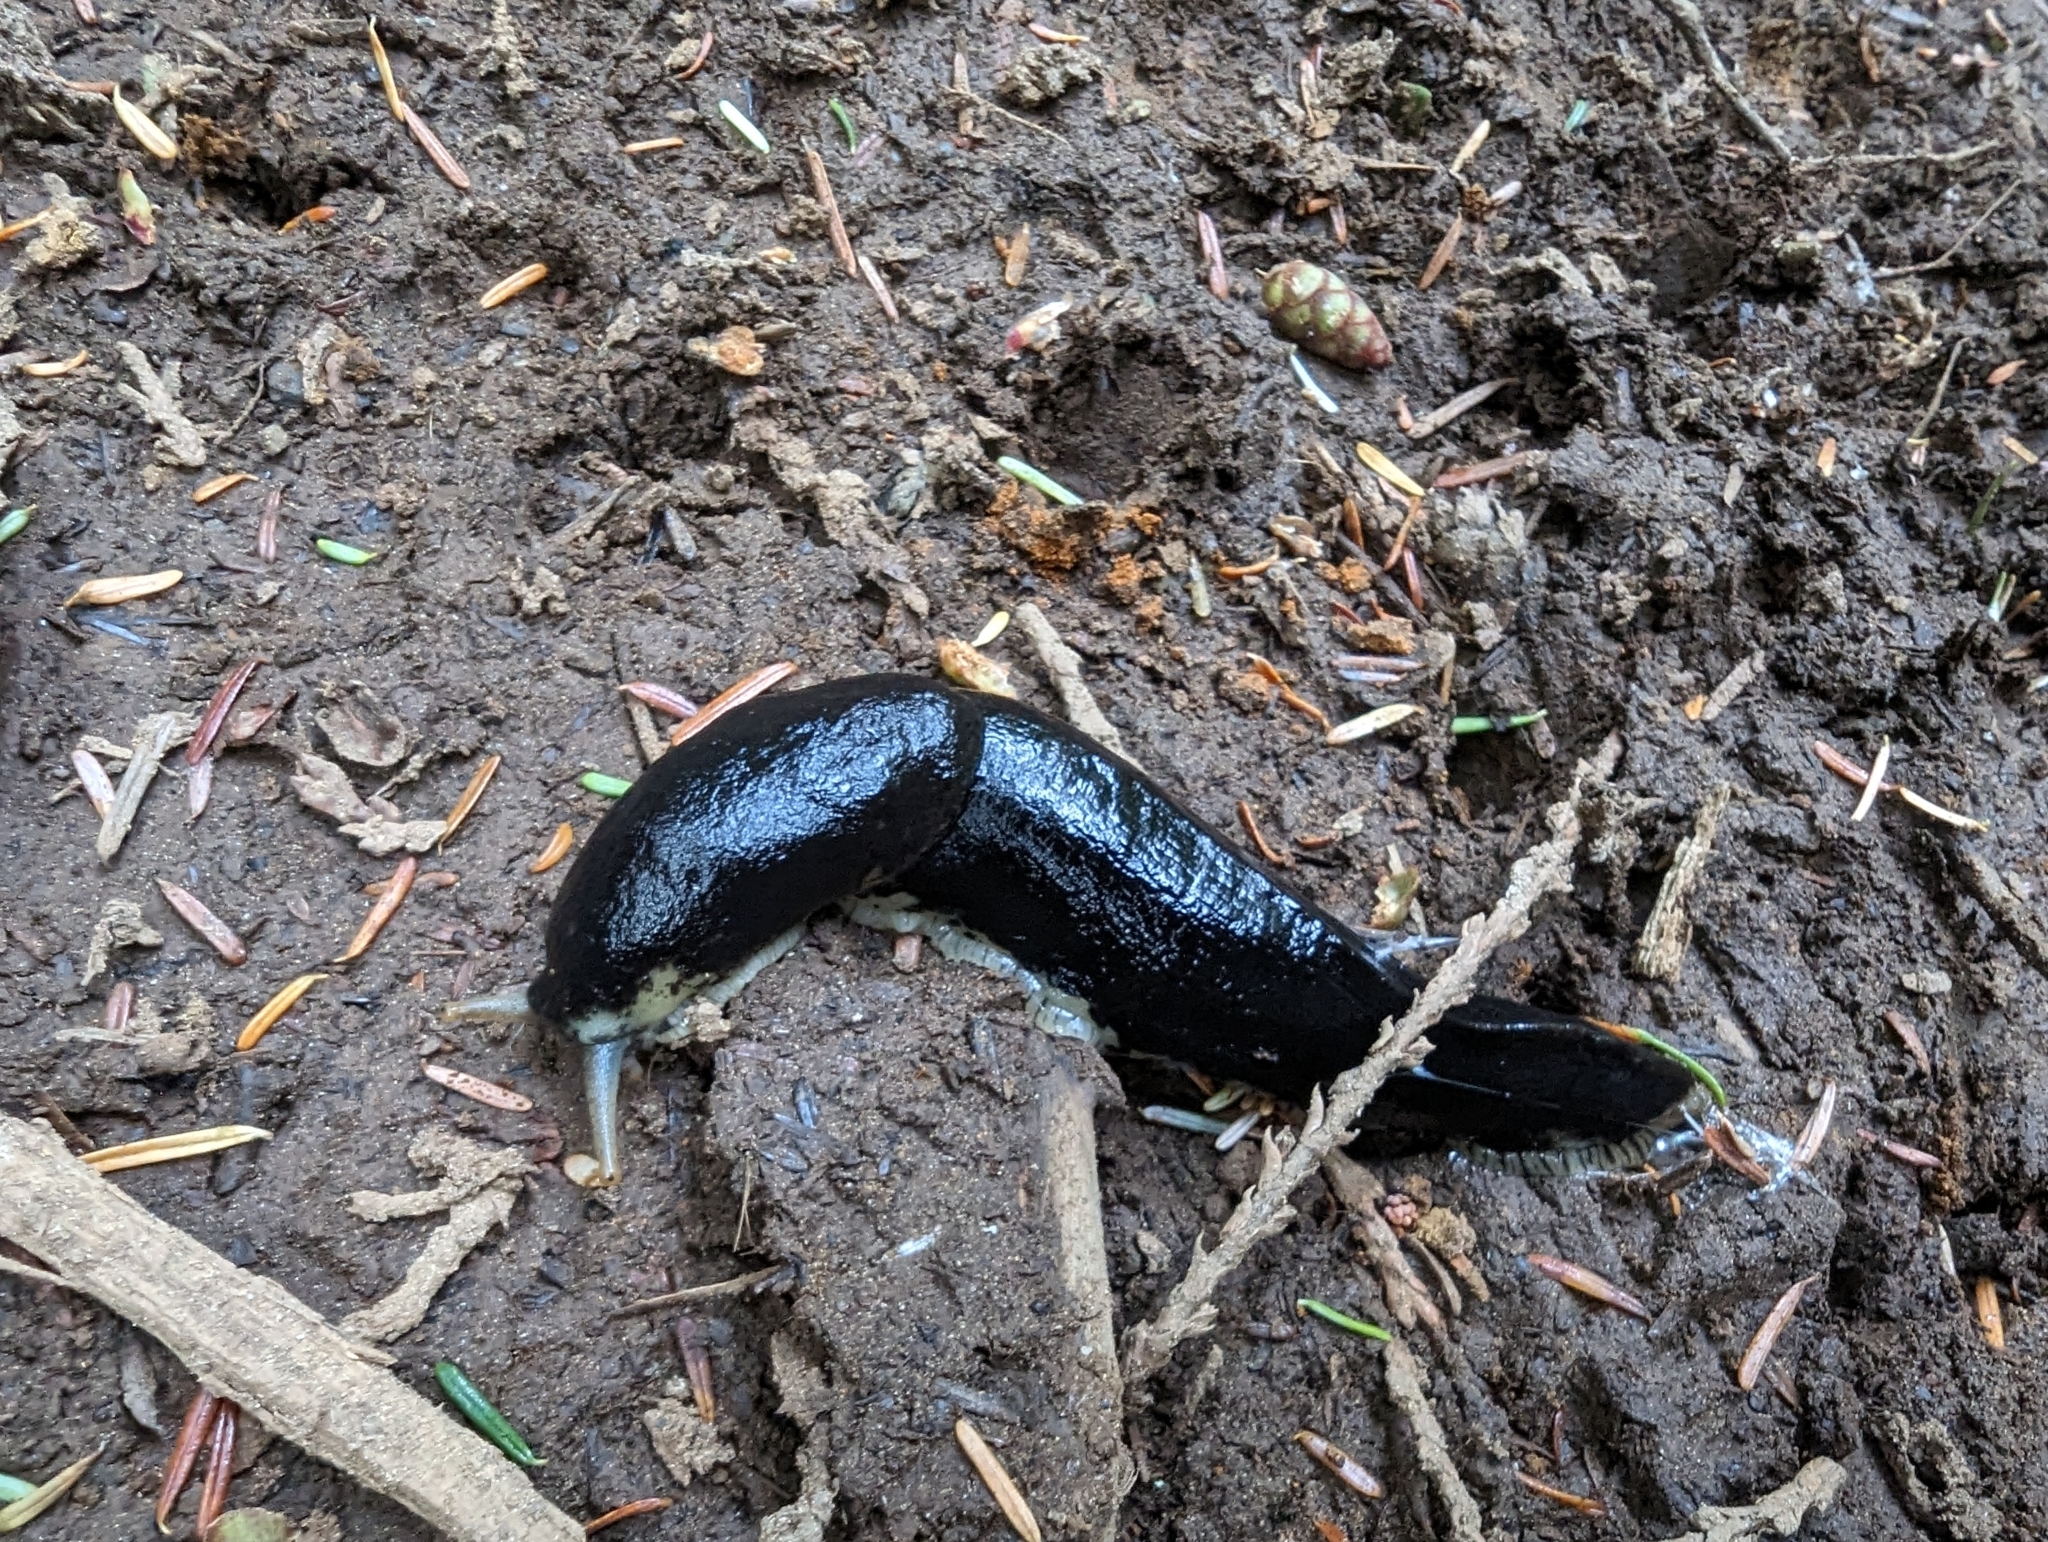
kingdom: Animalia
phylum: Mollusca
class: Gastropoda
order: Stylommatophora
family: Ariolimacidae
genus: Ariolimax
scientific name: Ariolimax columbianus
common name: Pacific banana slug
